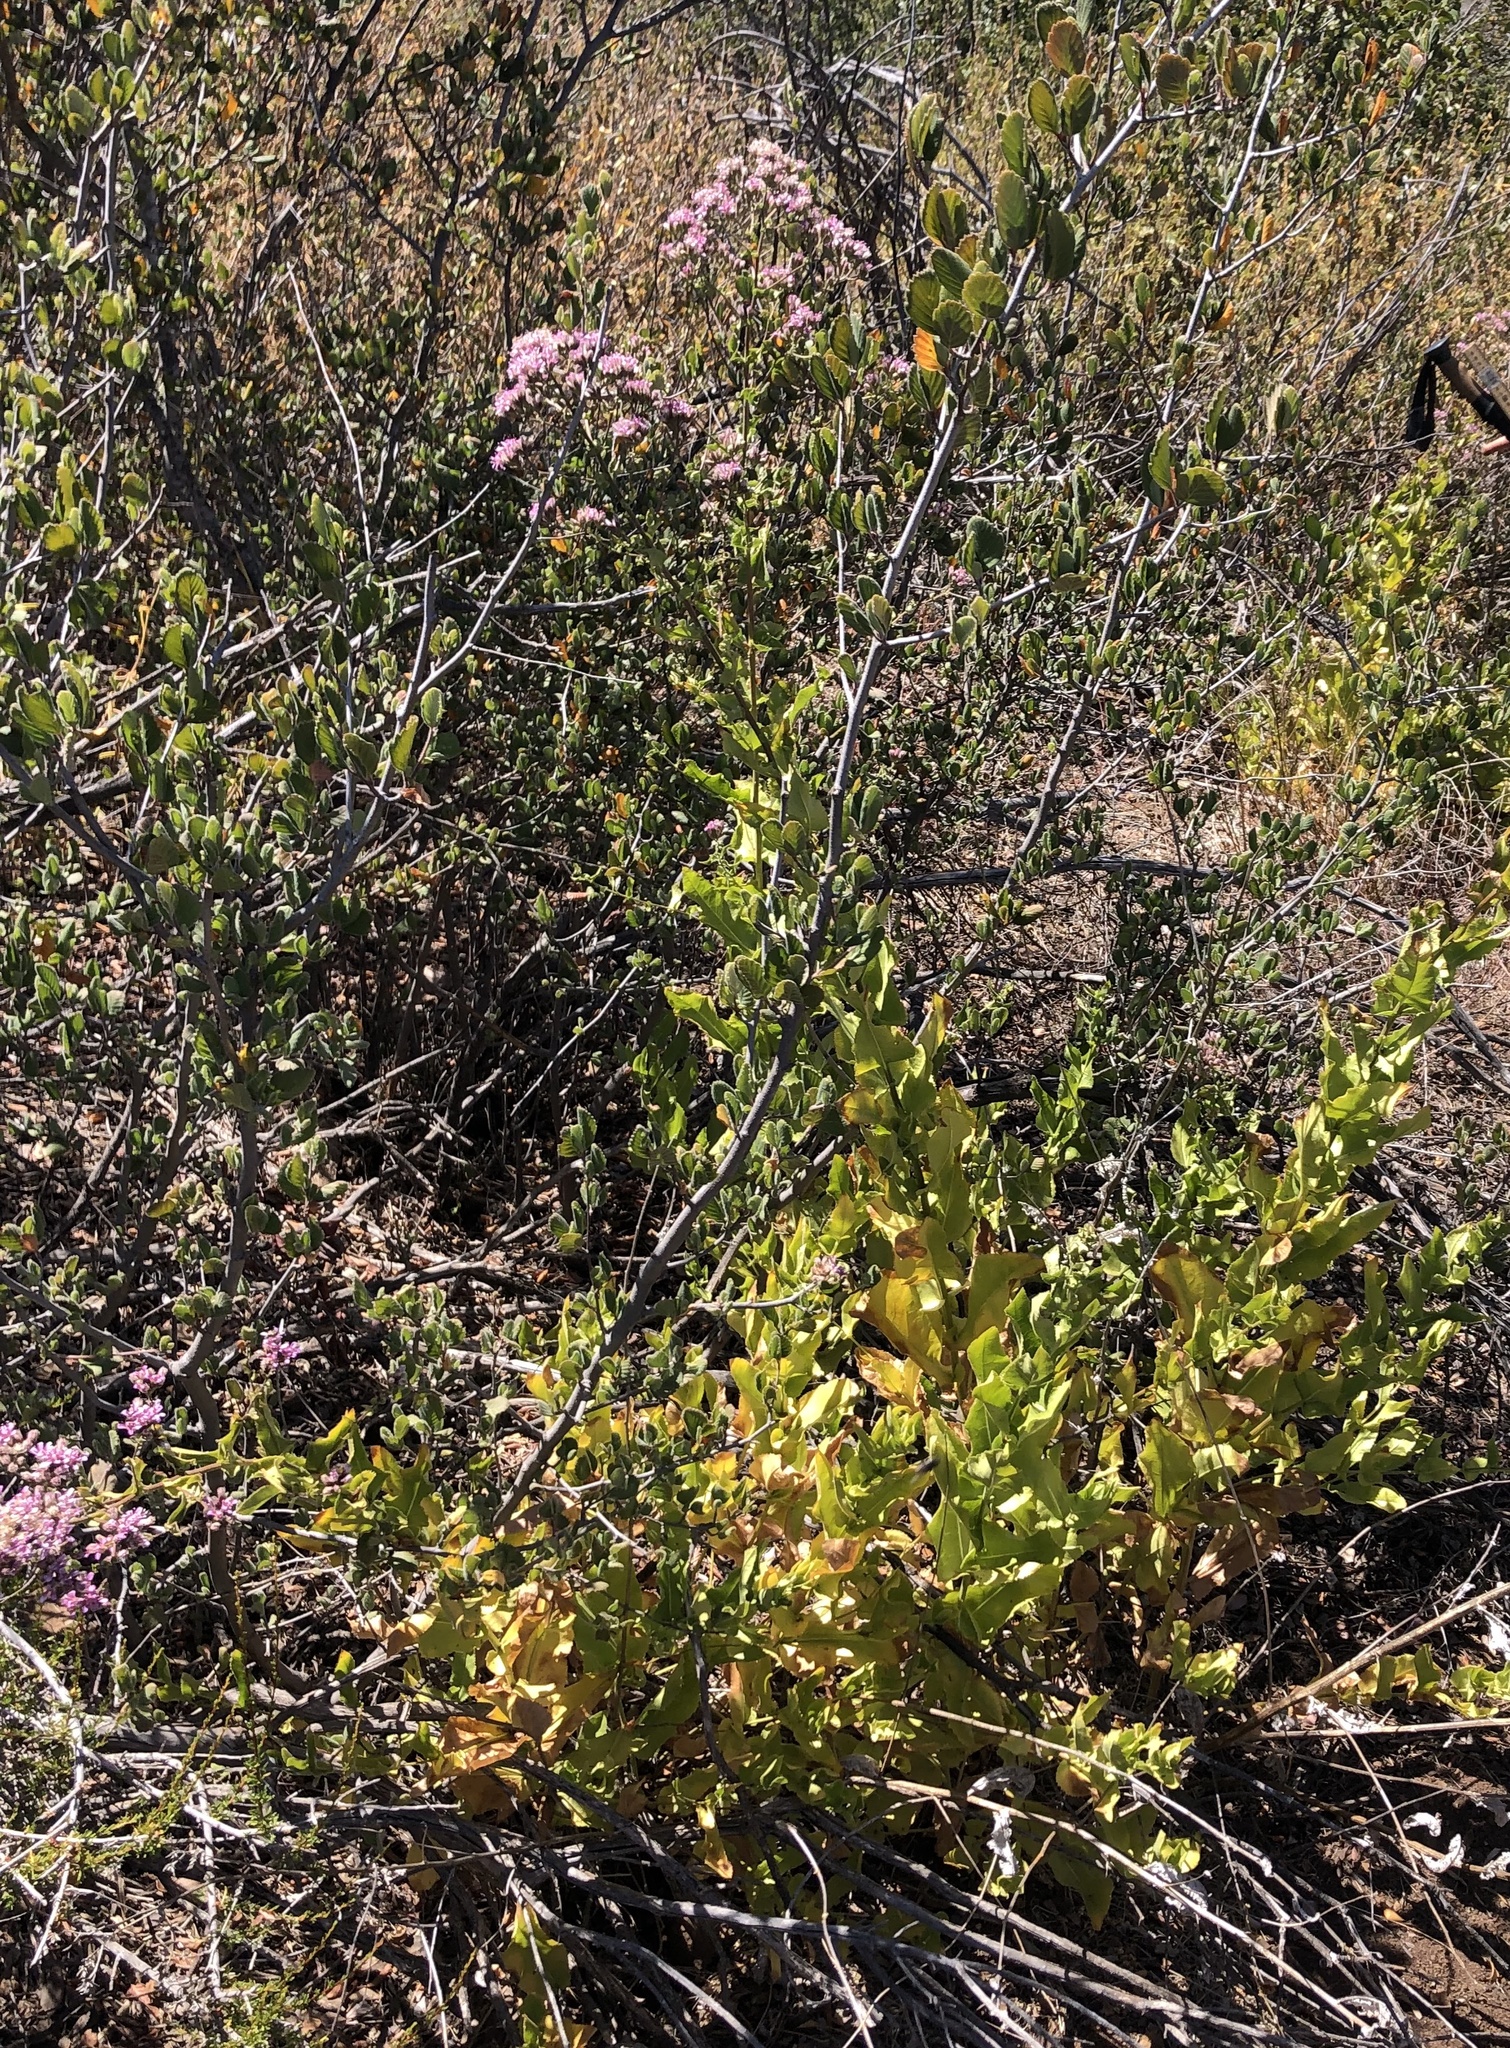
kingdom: Plantae
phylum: Tracheophyta
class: Magnoliopsida
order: Asterales
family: Asteraceae
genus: Acourtia
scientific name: Acourtia microcephala
